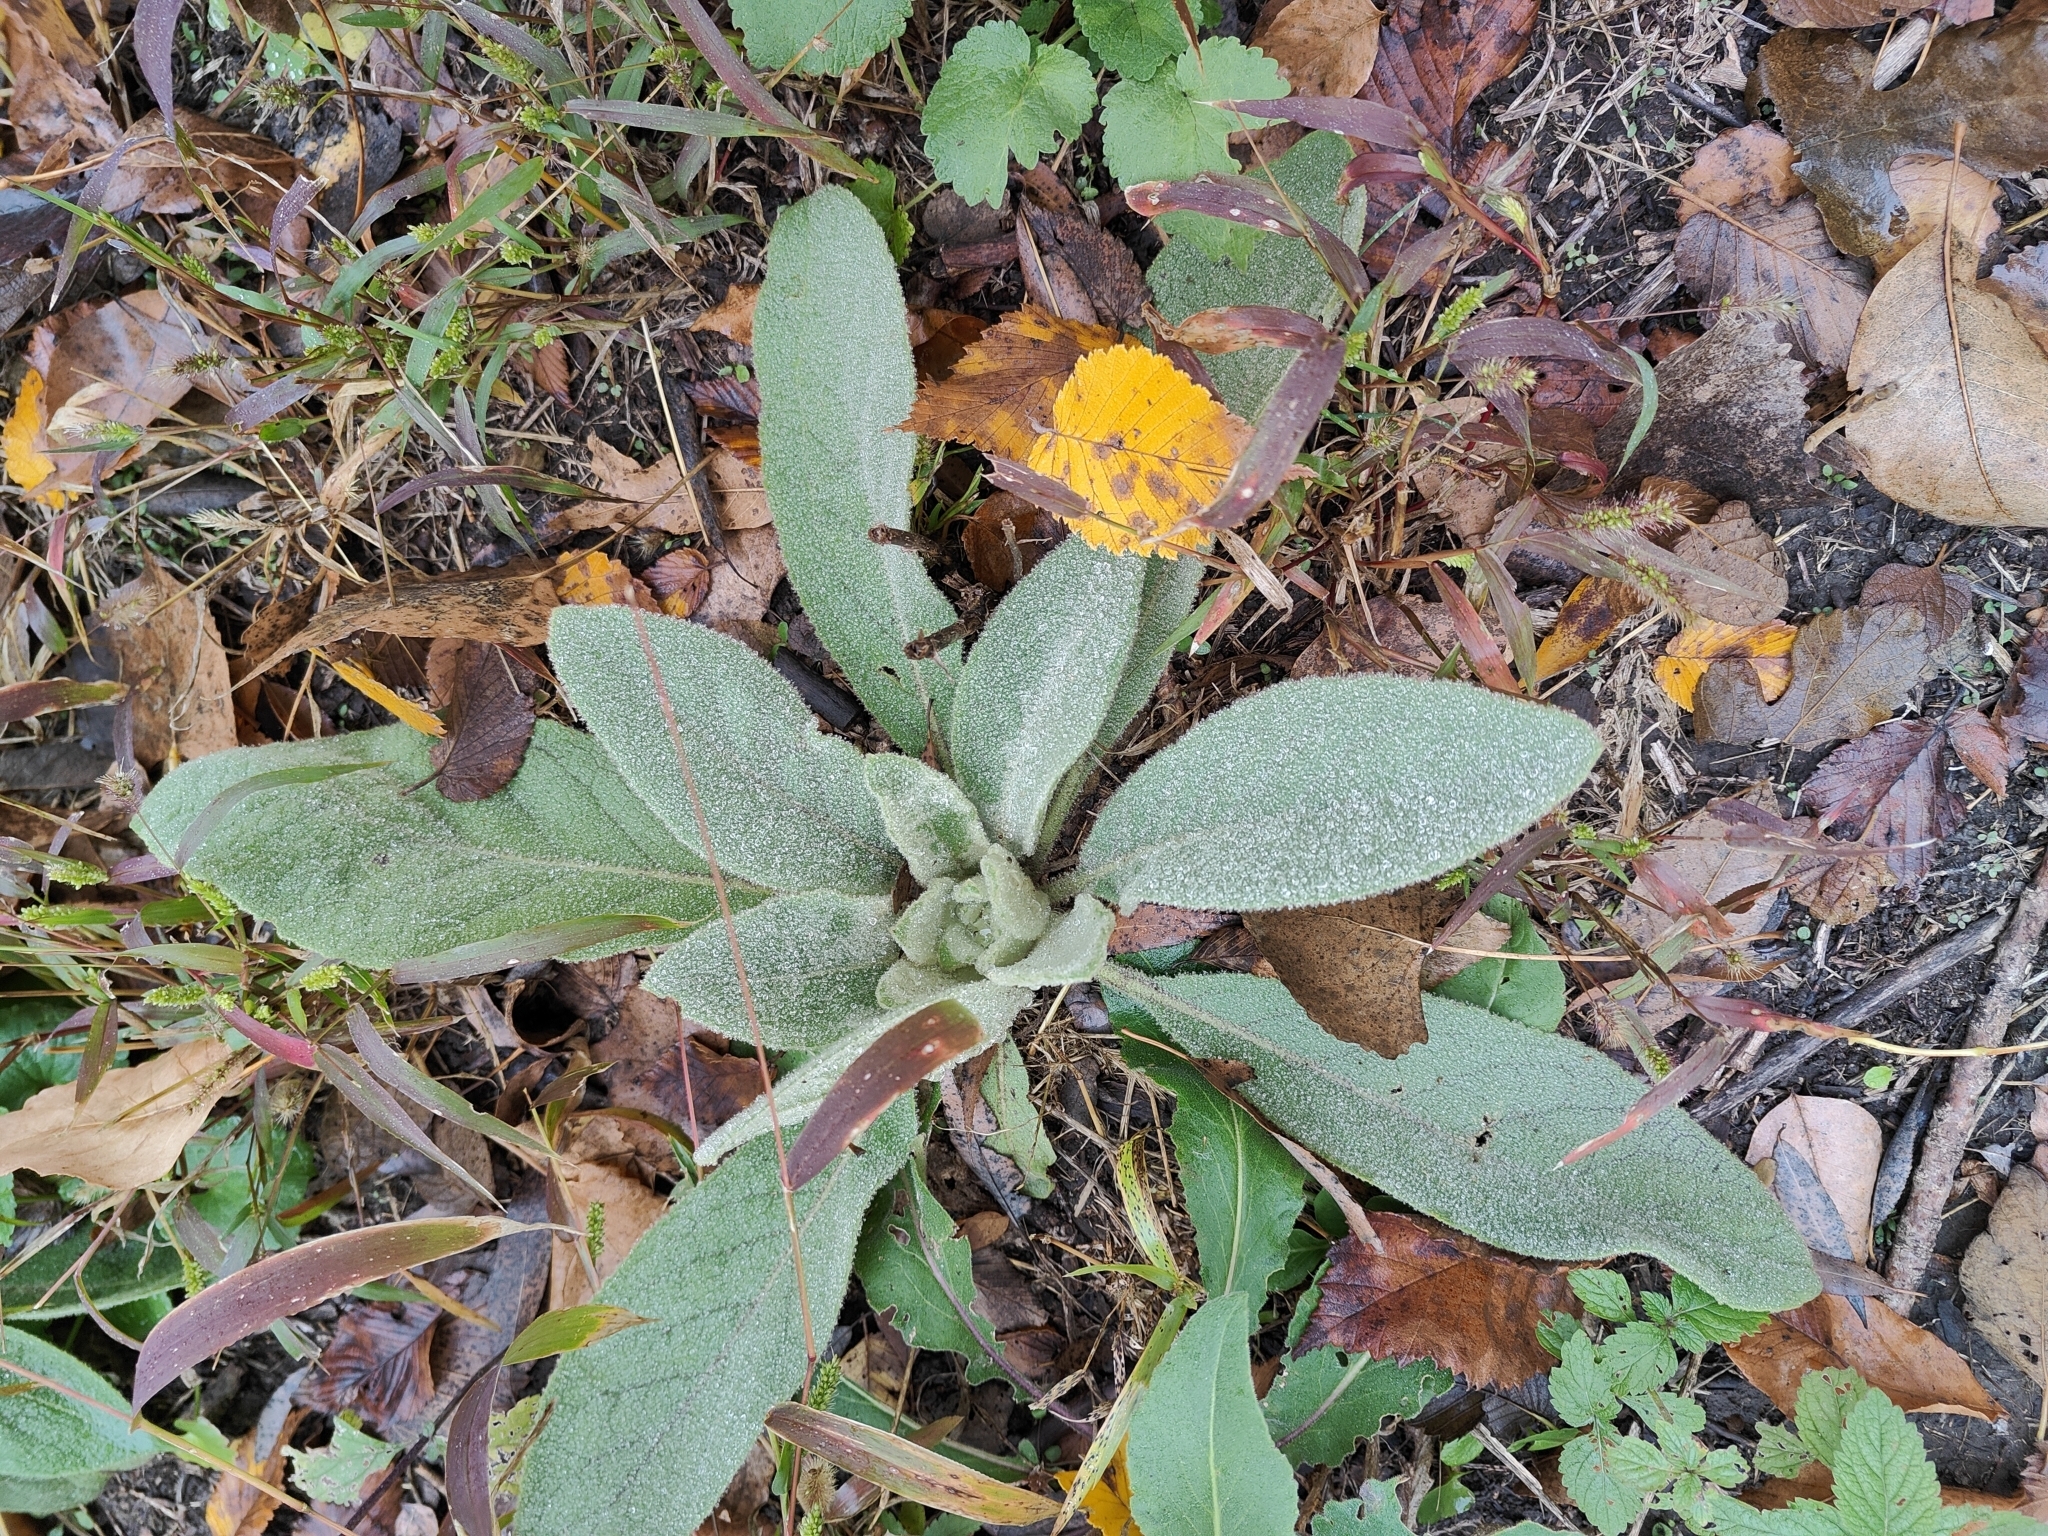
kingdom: Plantae
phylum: Tracheophyta
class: Magnoliopsida
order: Lamiales
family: Scrophulariaceae
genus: Verbascum
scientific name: Verbascum thapsus
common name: Common mullein
